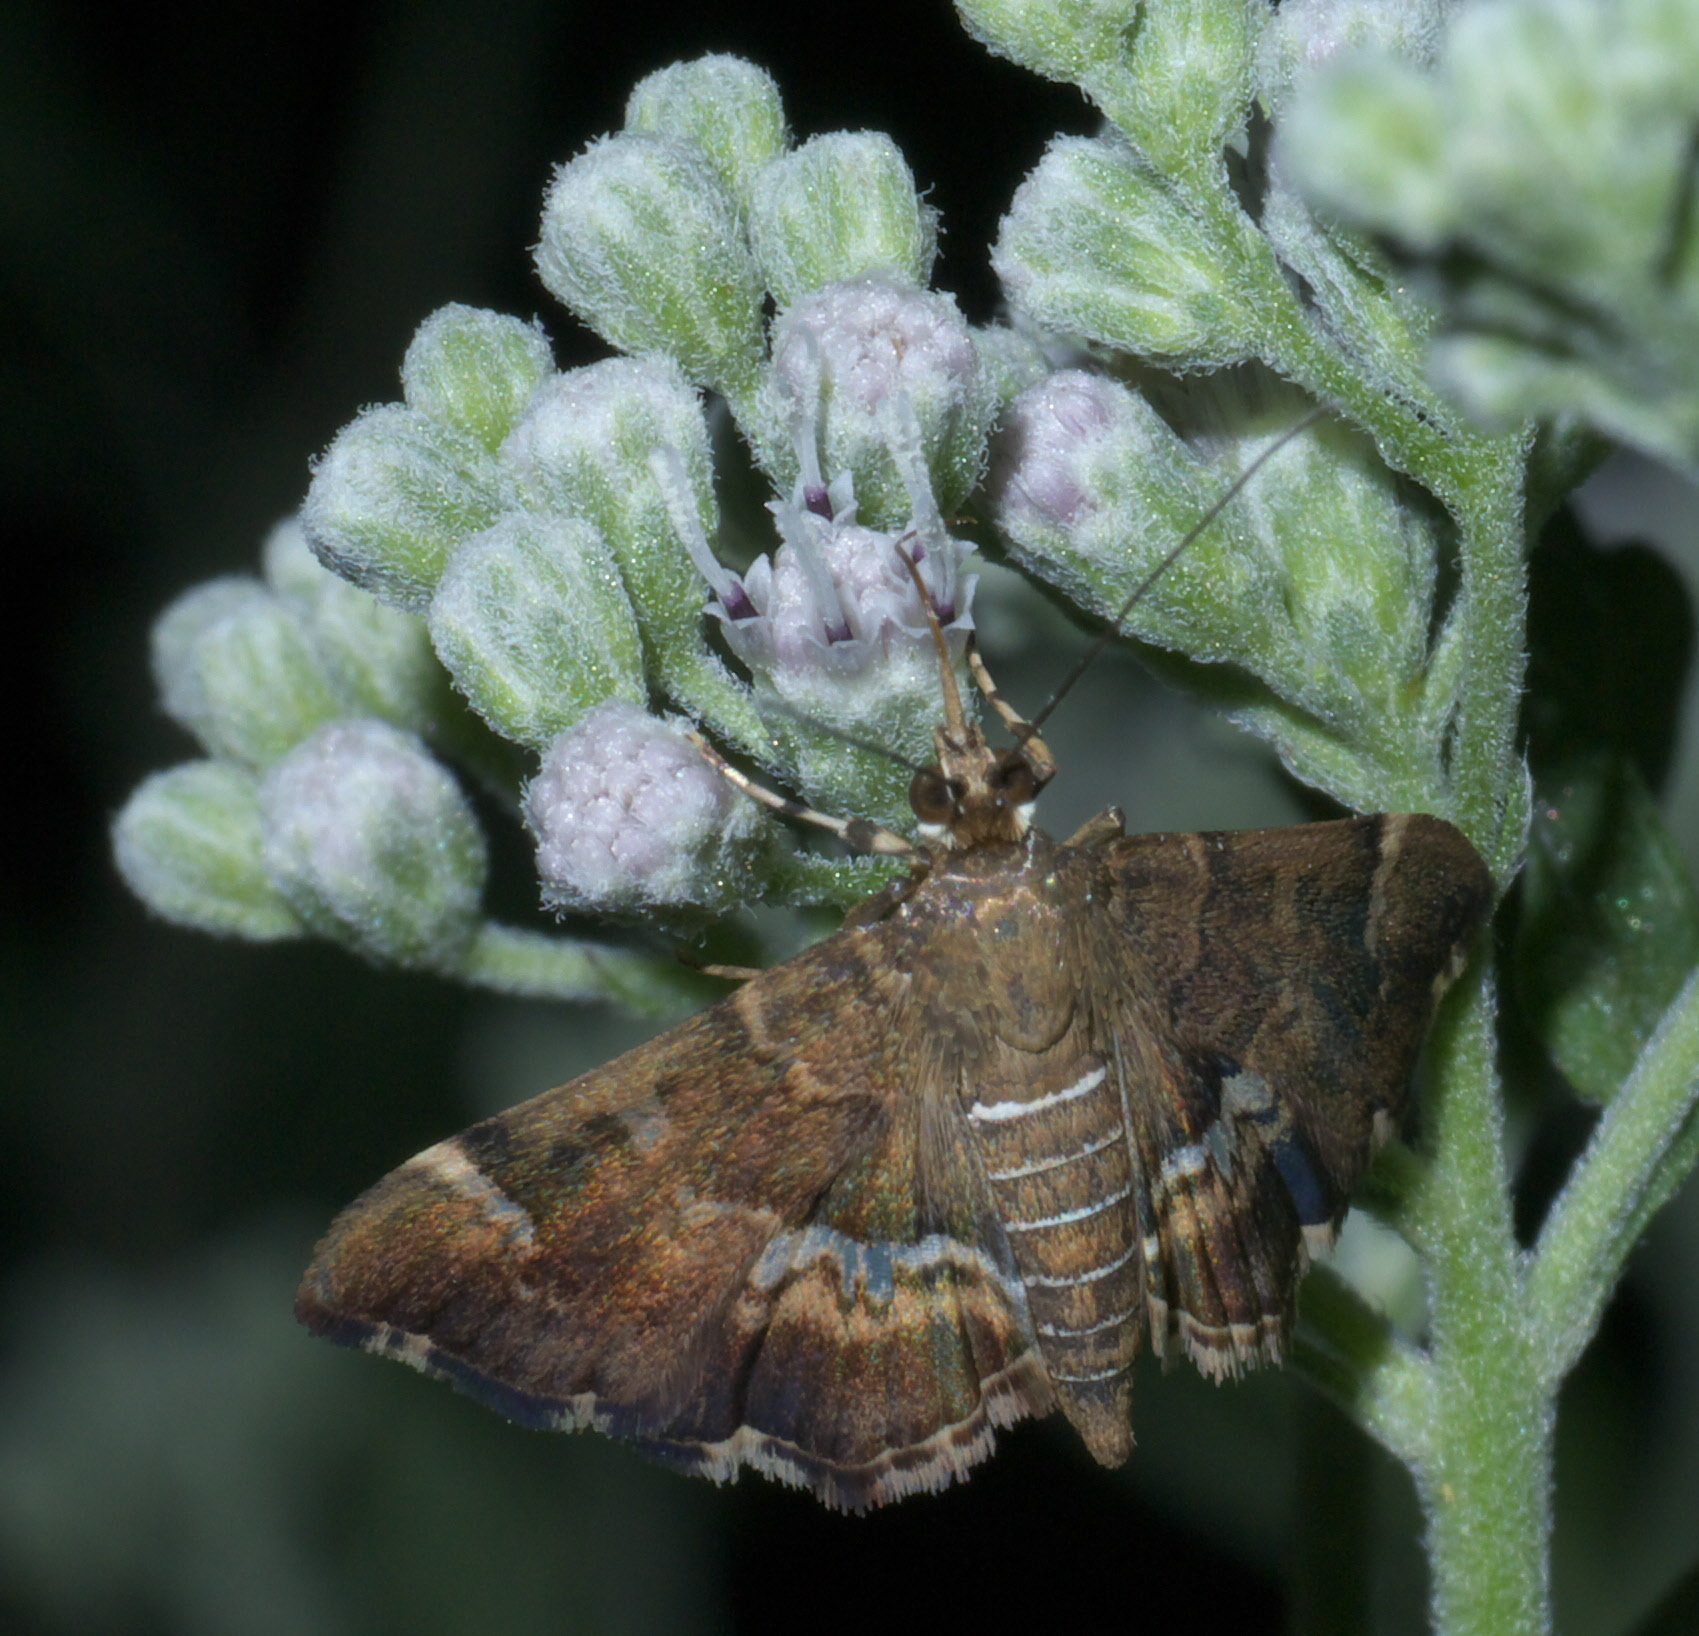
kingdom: Animalia
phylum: Arthropoda
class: Insecta
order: Lepidoptera
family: Crambidae
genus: Hymenia
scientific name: Hymenia perspectalis
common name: Spotted beet webworm
